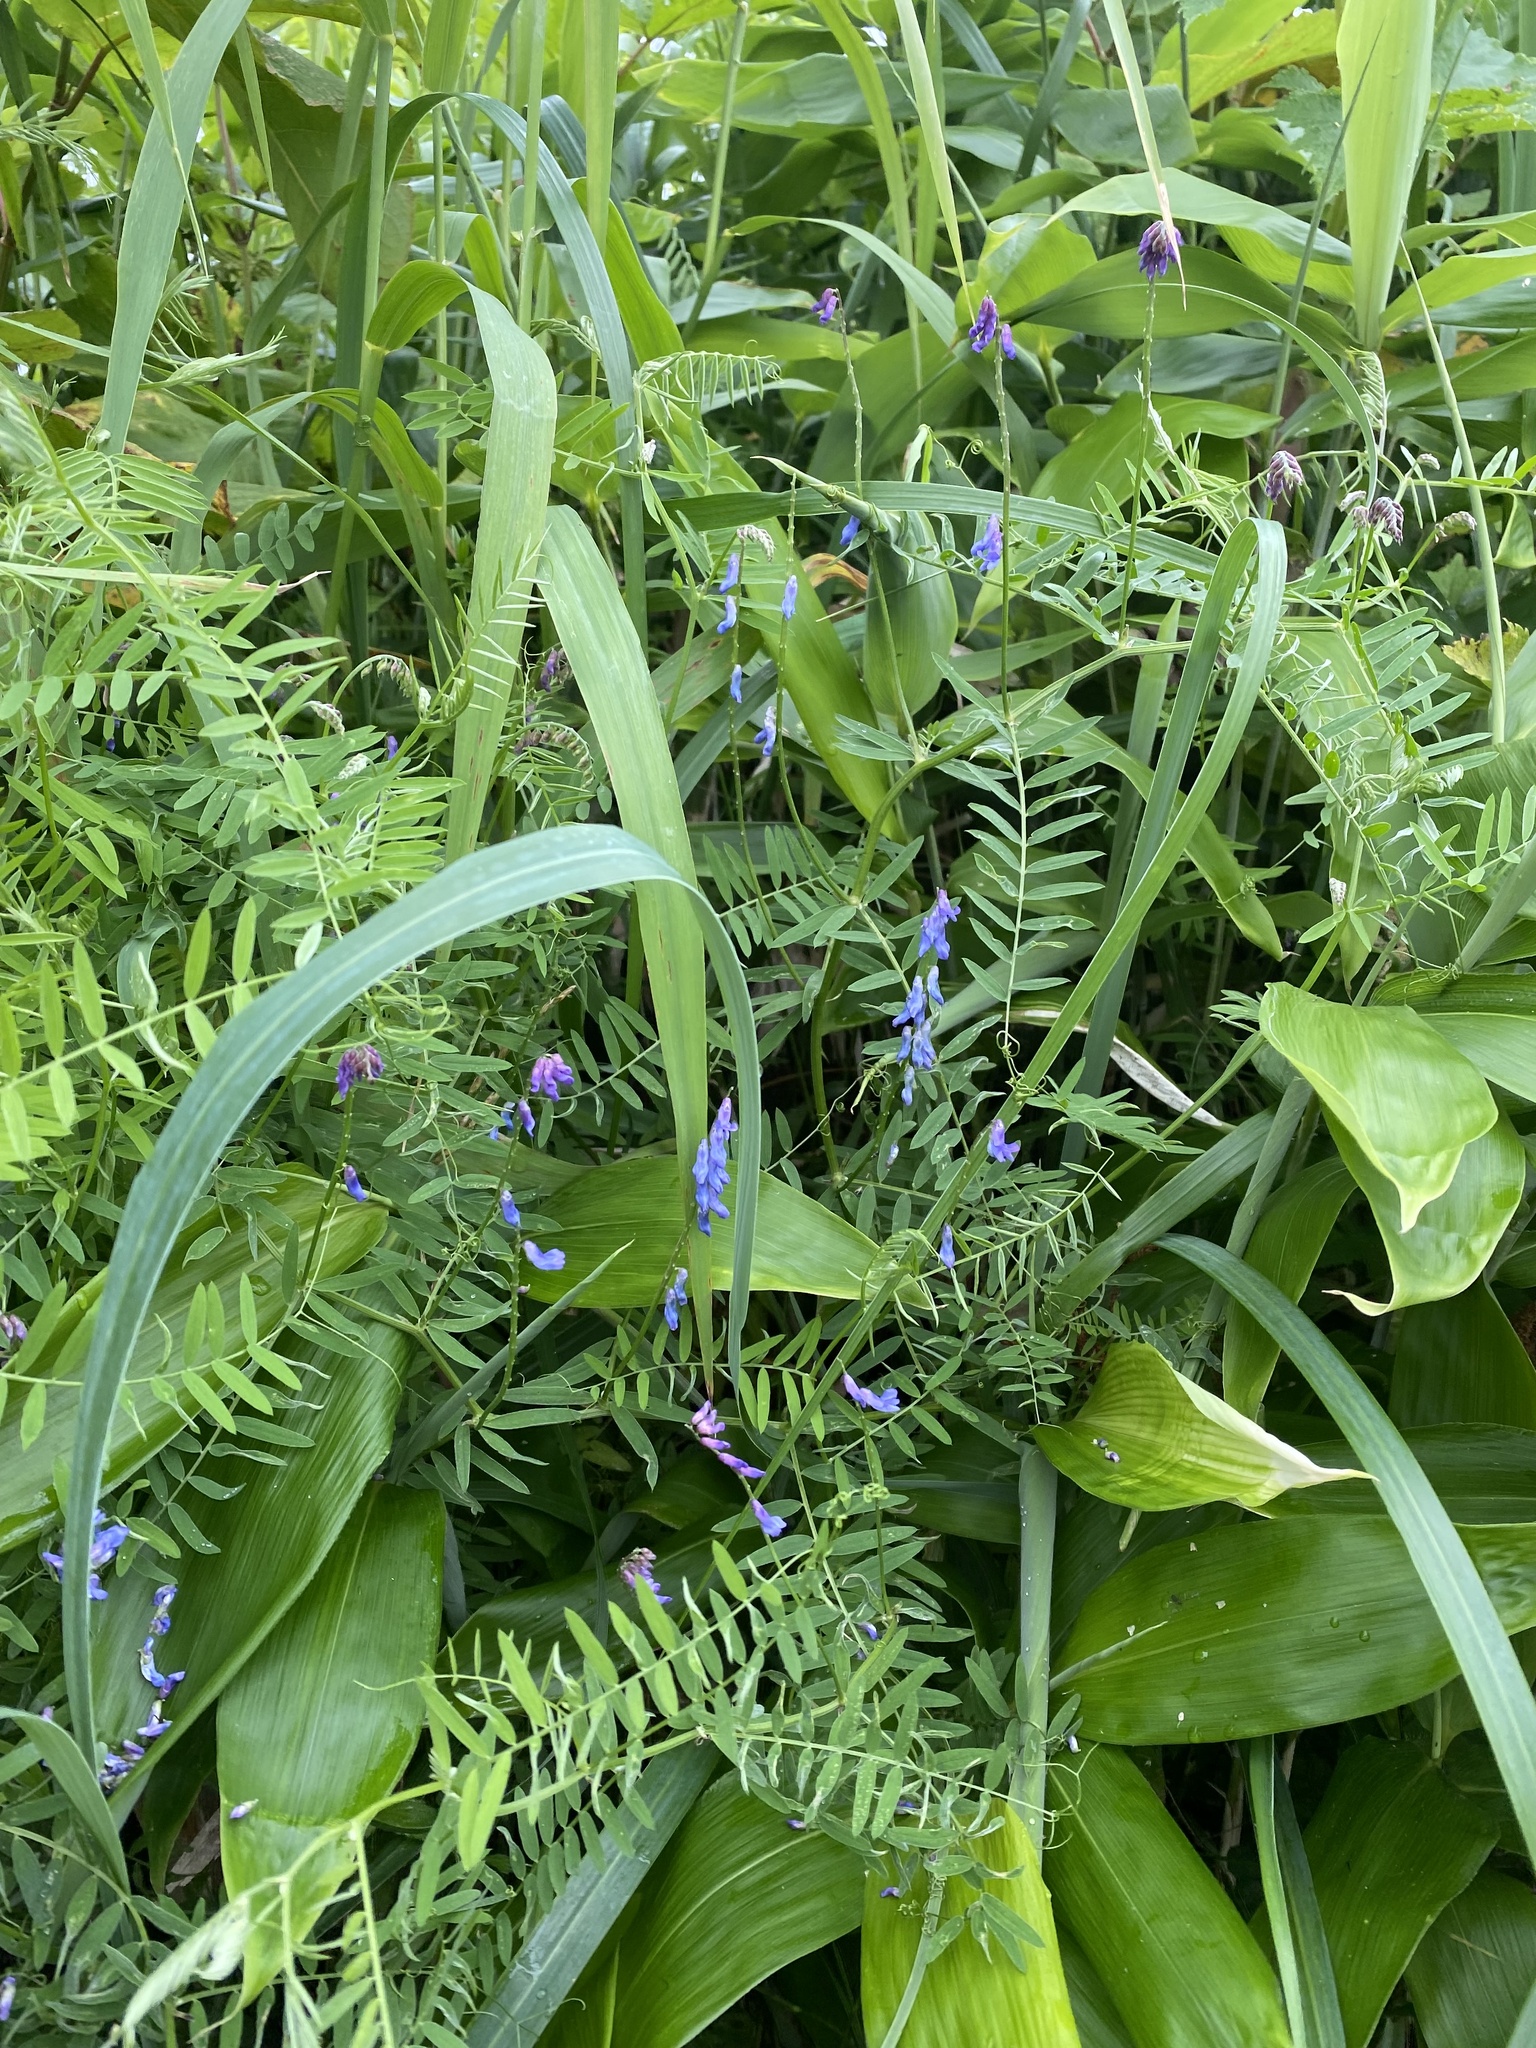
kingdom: Plantae
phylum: Tracheophyta
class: Magnoliopsida
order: Fabales
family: Fabaceae
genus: Vicia
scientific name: Vicia cracca
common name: Bird vetch
